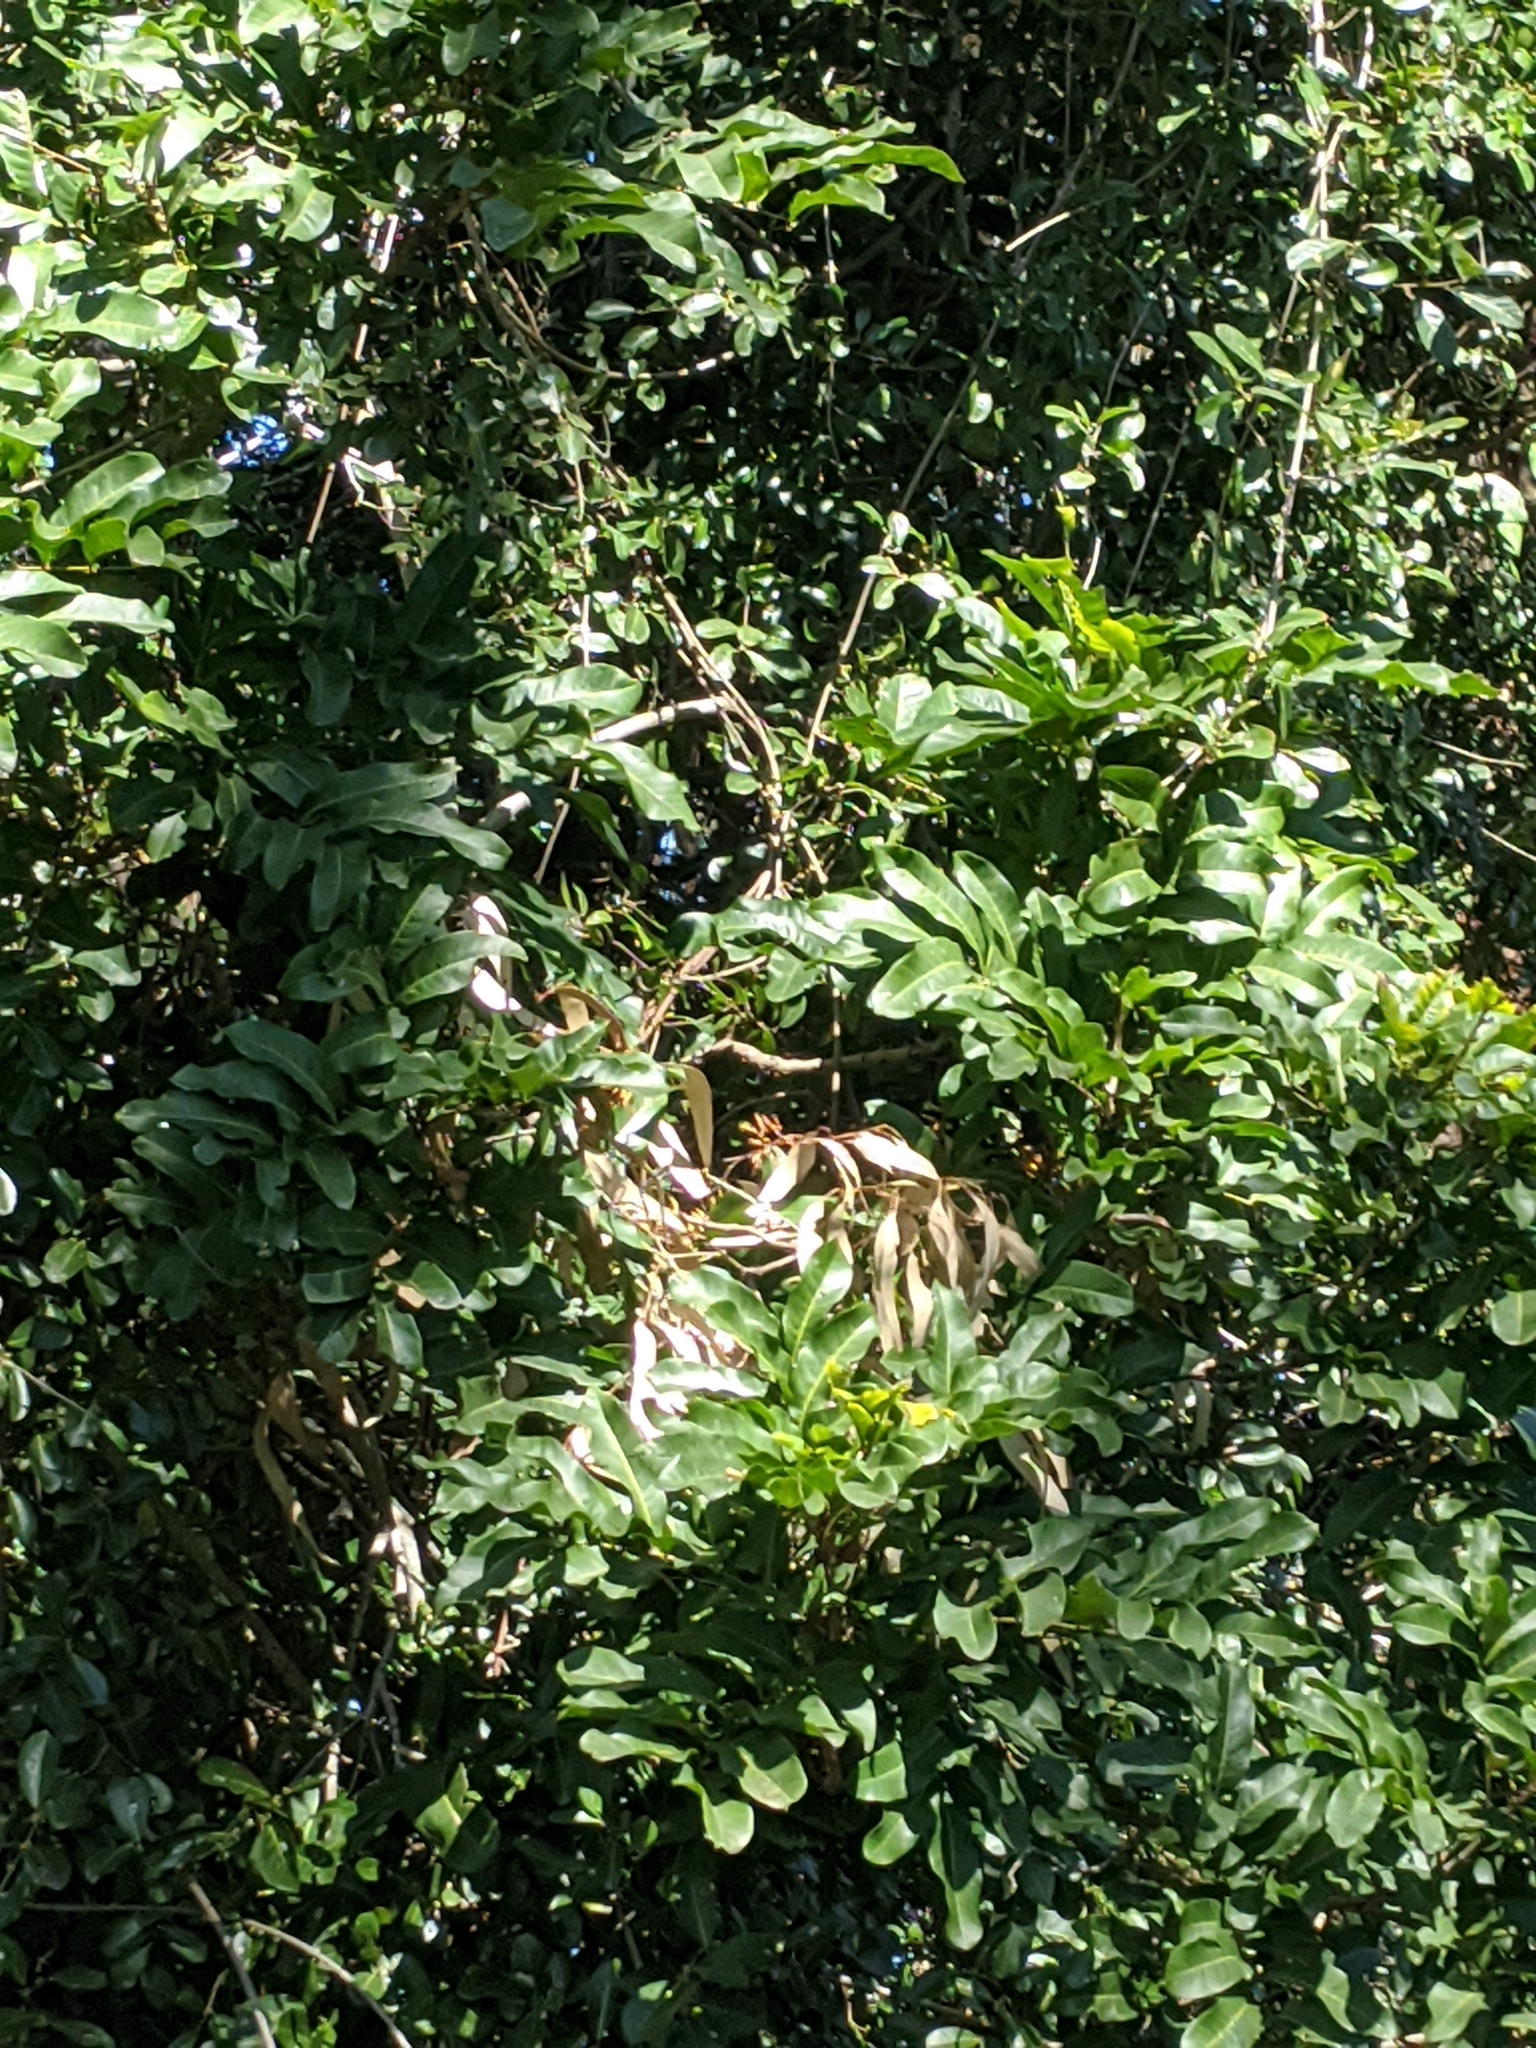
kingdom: Plantae
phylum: Tracheophyta
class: Magnoliopsida
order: Sapindales
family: Sapindaceae
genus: Harpullia
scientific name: Harpullia hillii
